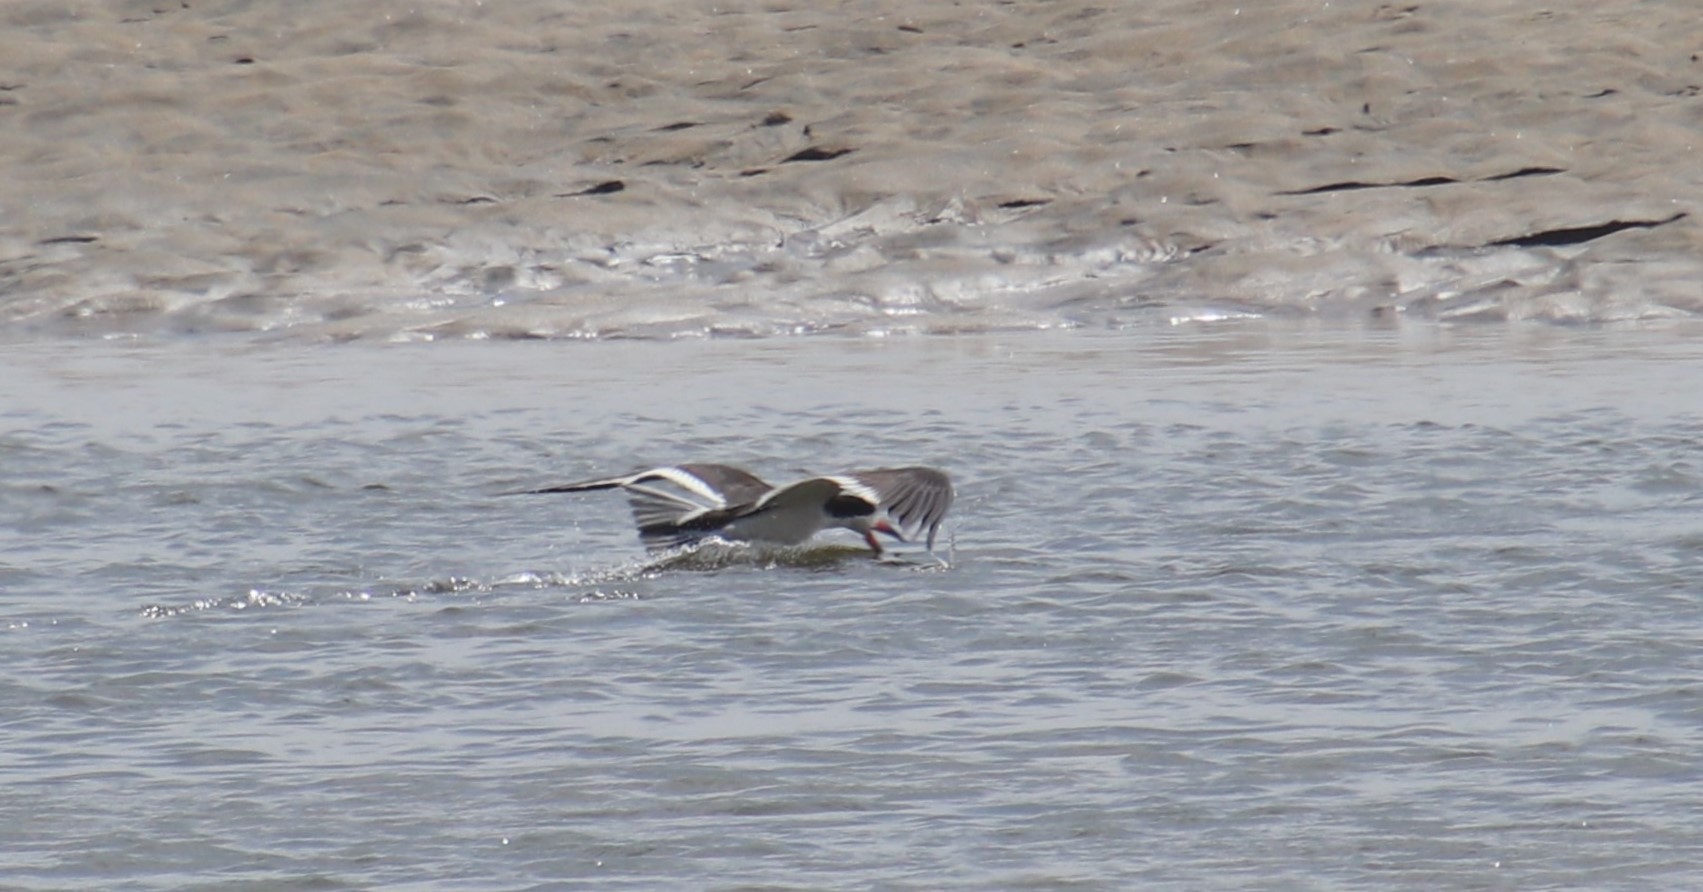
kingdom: Animalia
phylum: Chordata
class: Aves
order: Charadriiformes
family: Laridae
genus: Rynchops
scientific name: Rynchops niger
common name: Black skimmer
